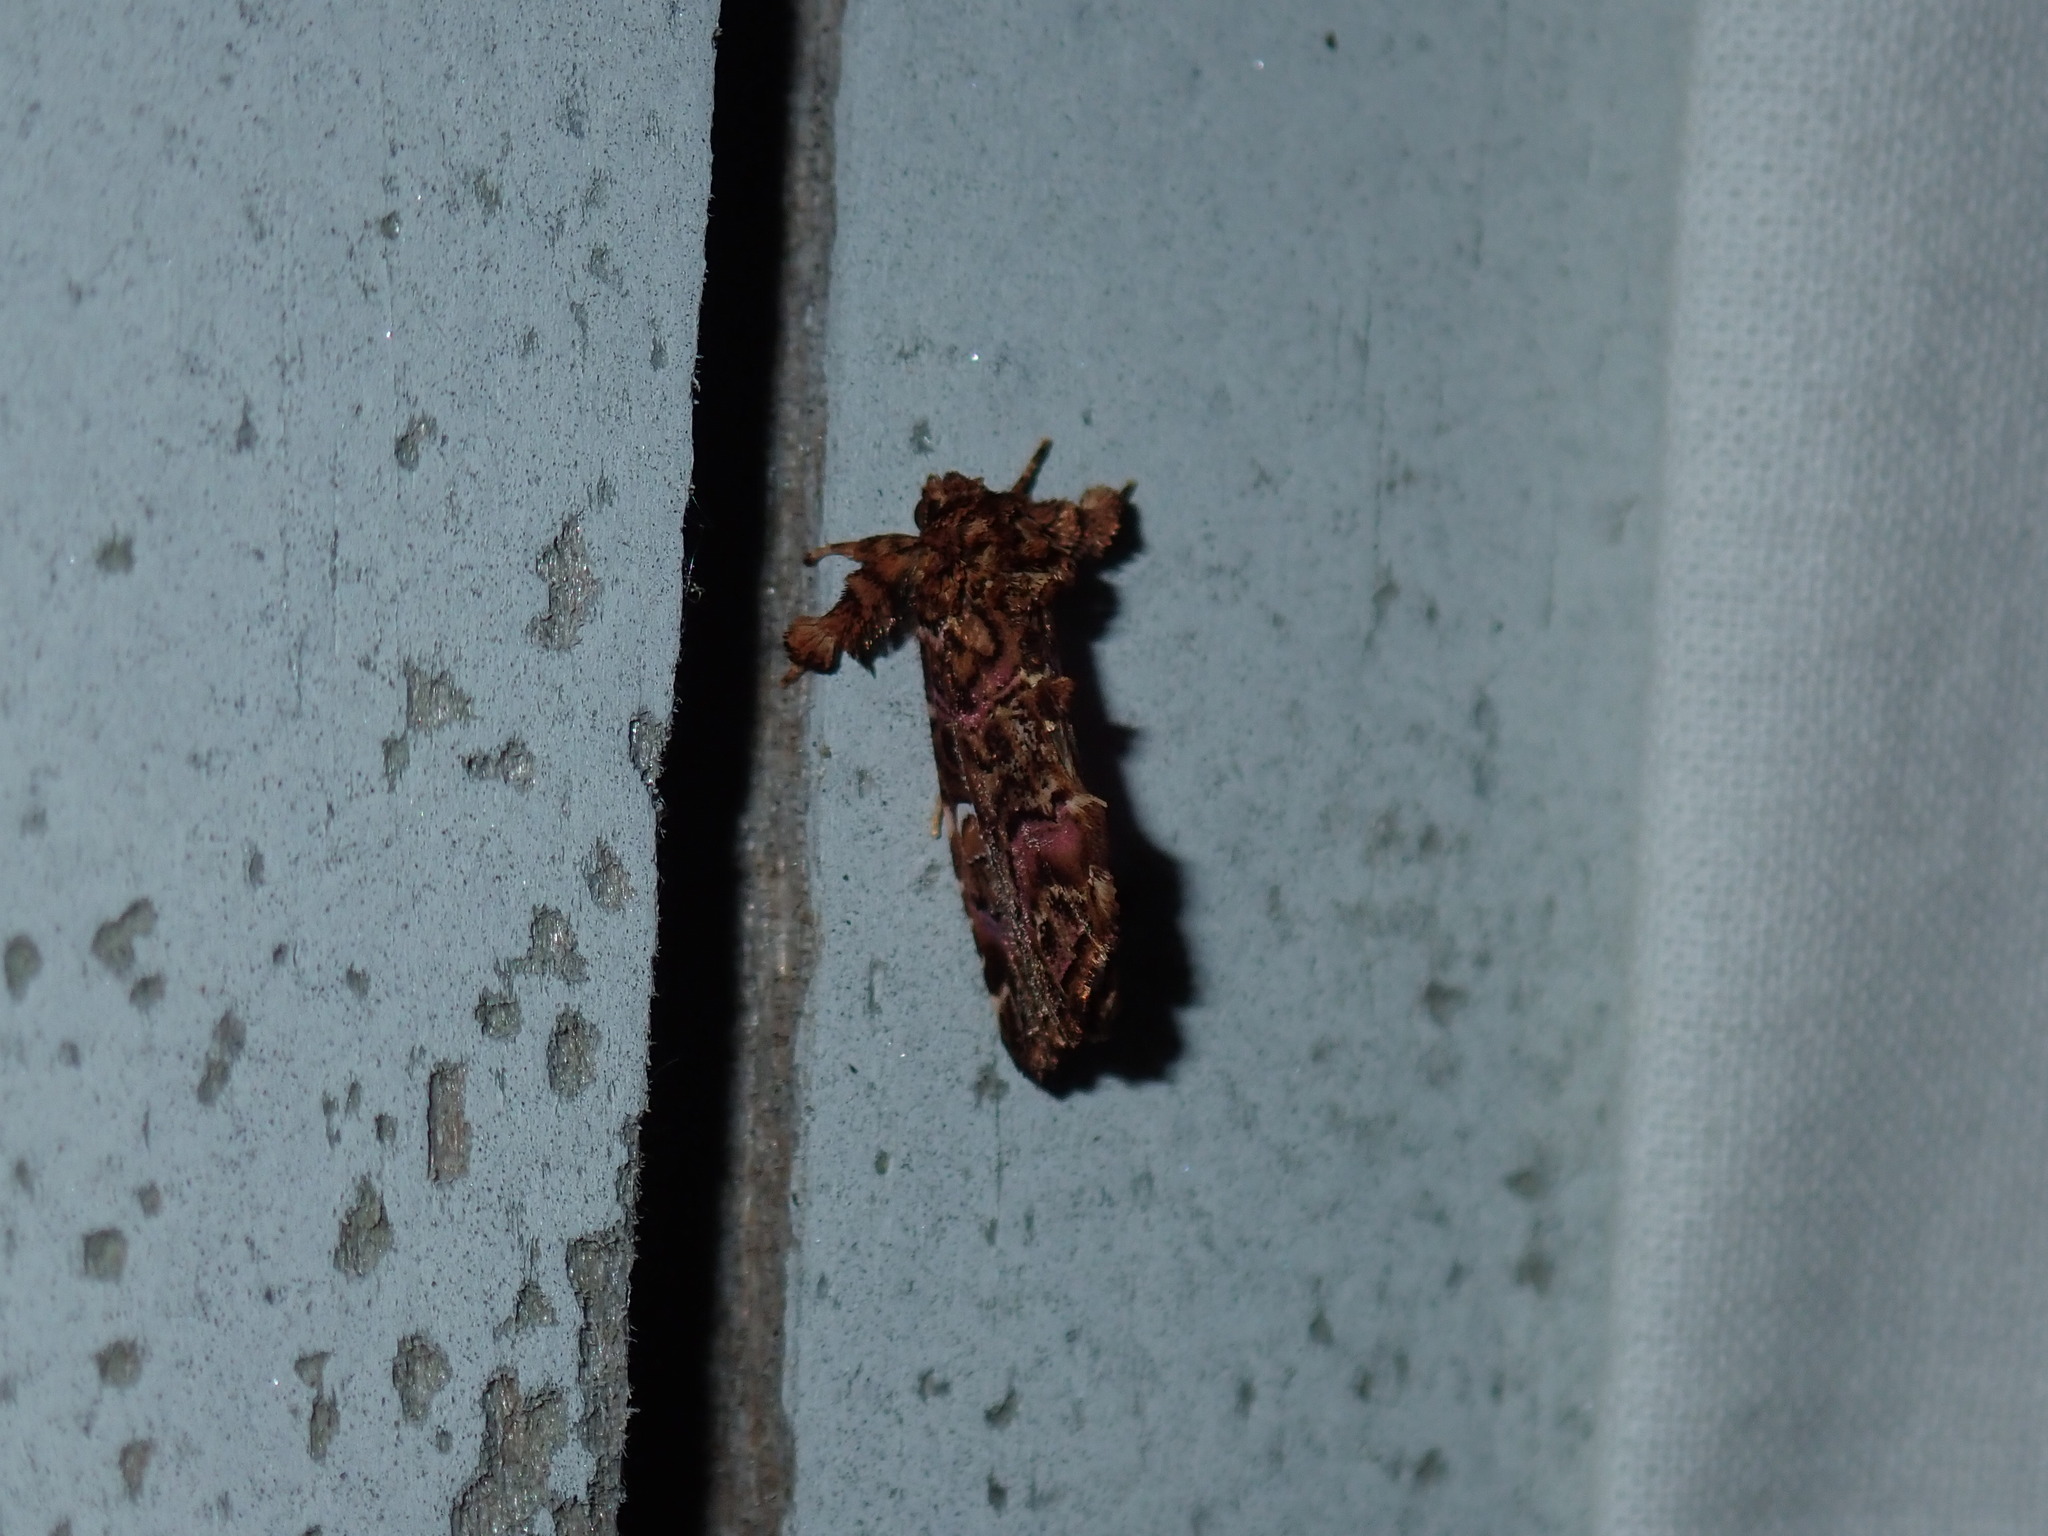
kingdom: Animalia
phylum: Arthropoda
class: Insecta
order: Lepidoptera
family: Noctuidae
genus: Callopistria
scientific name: Callopistria mollissima
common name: Pink-shaded fern moth
